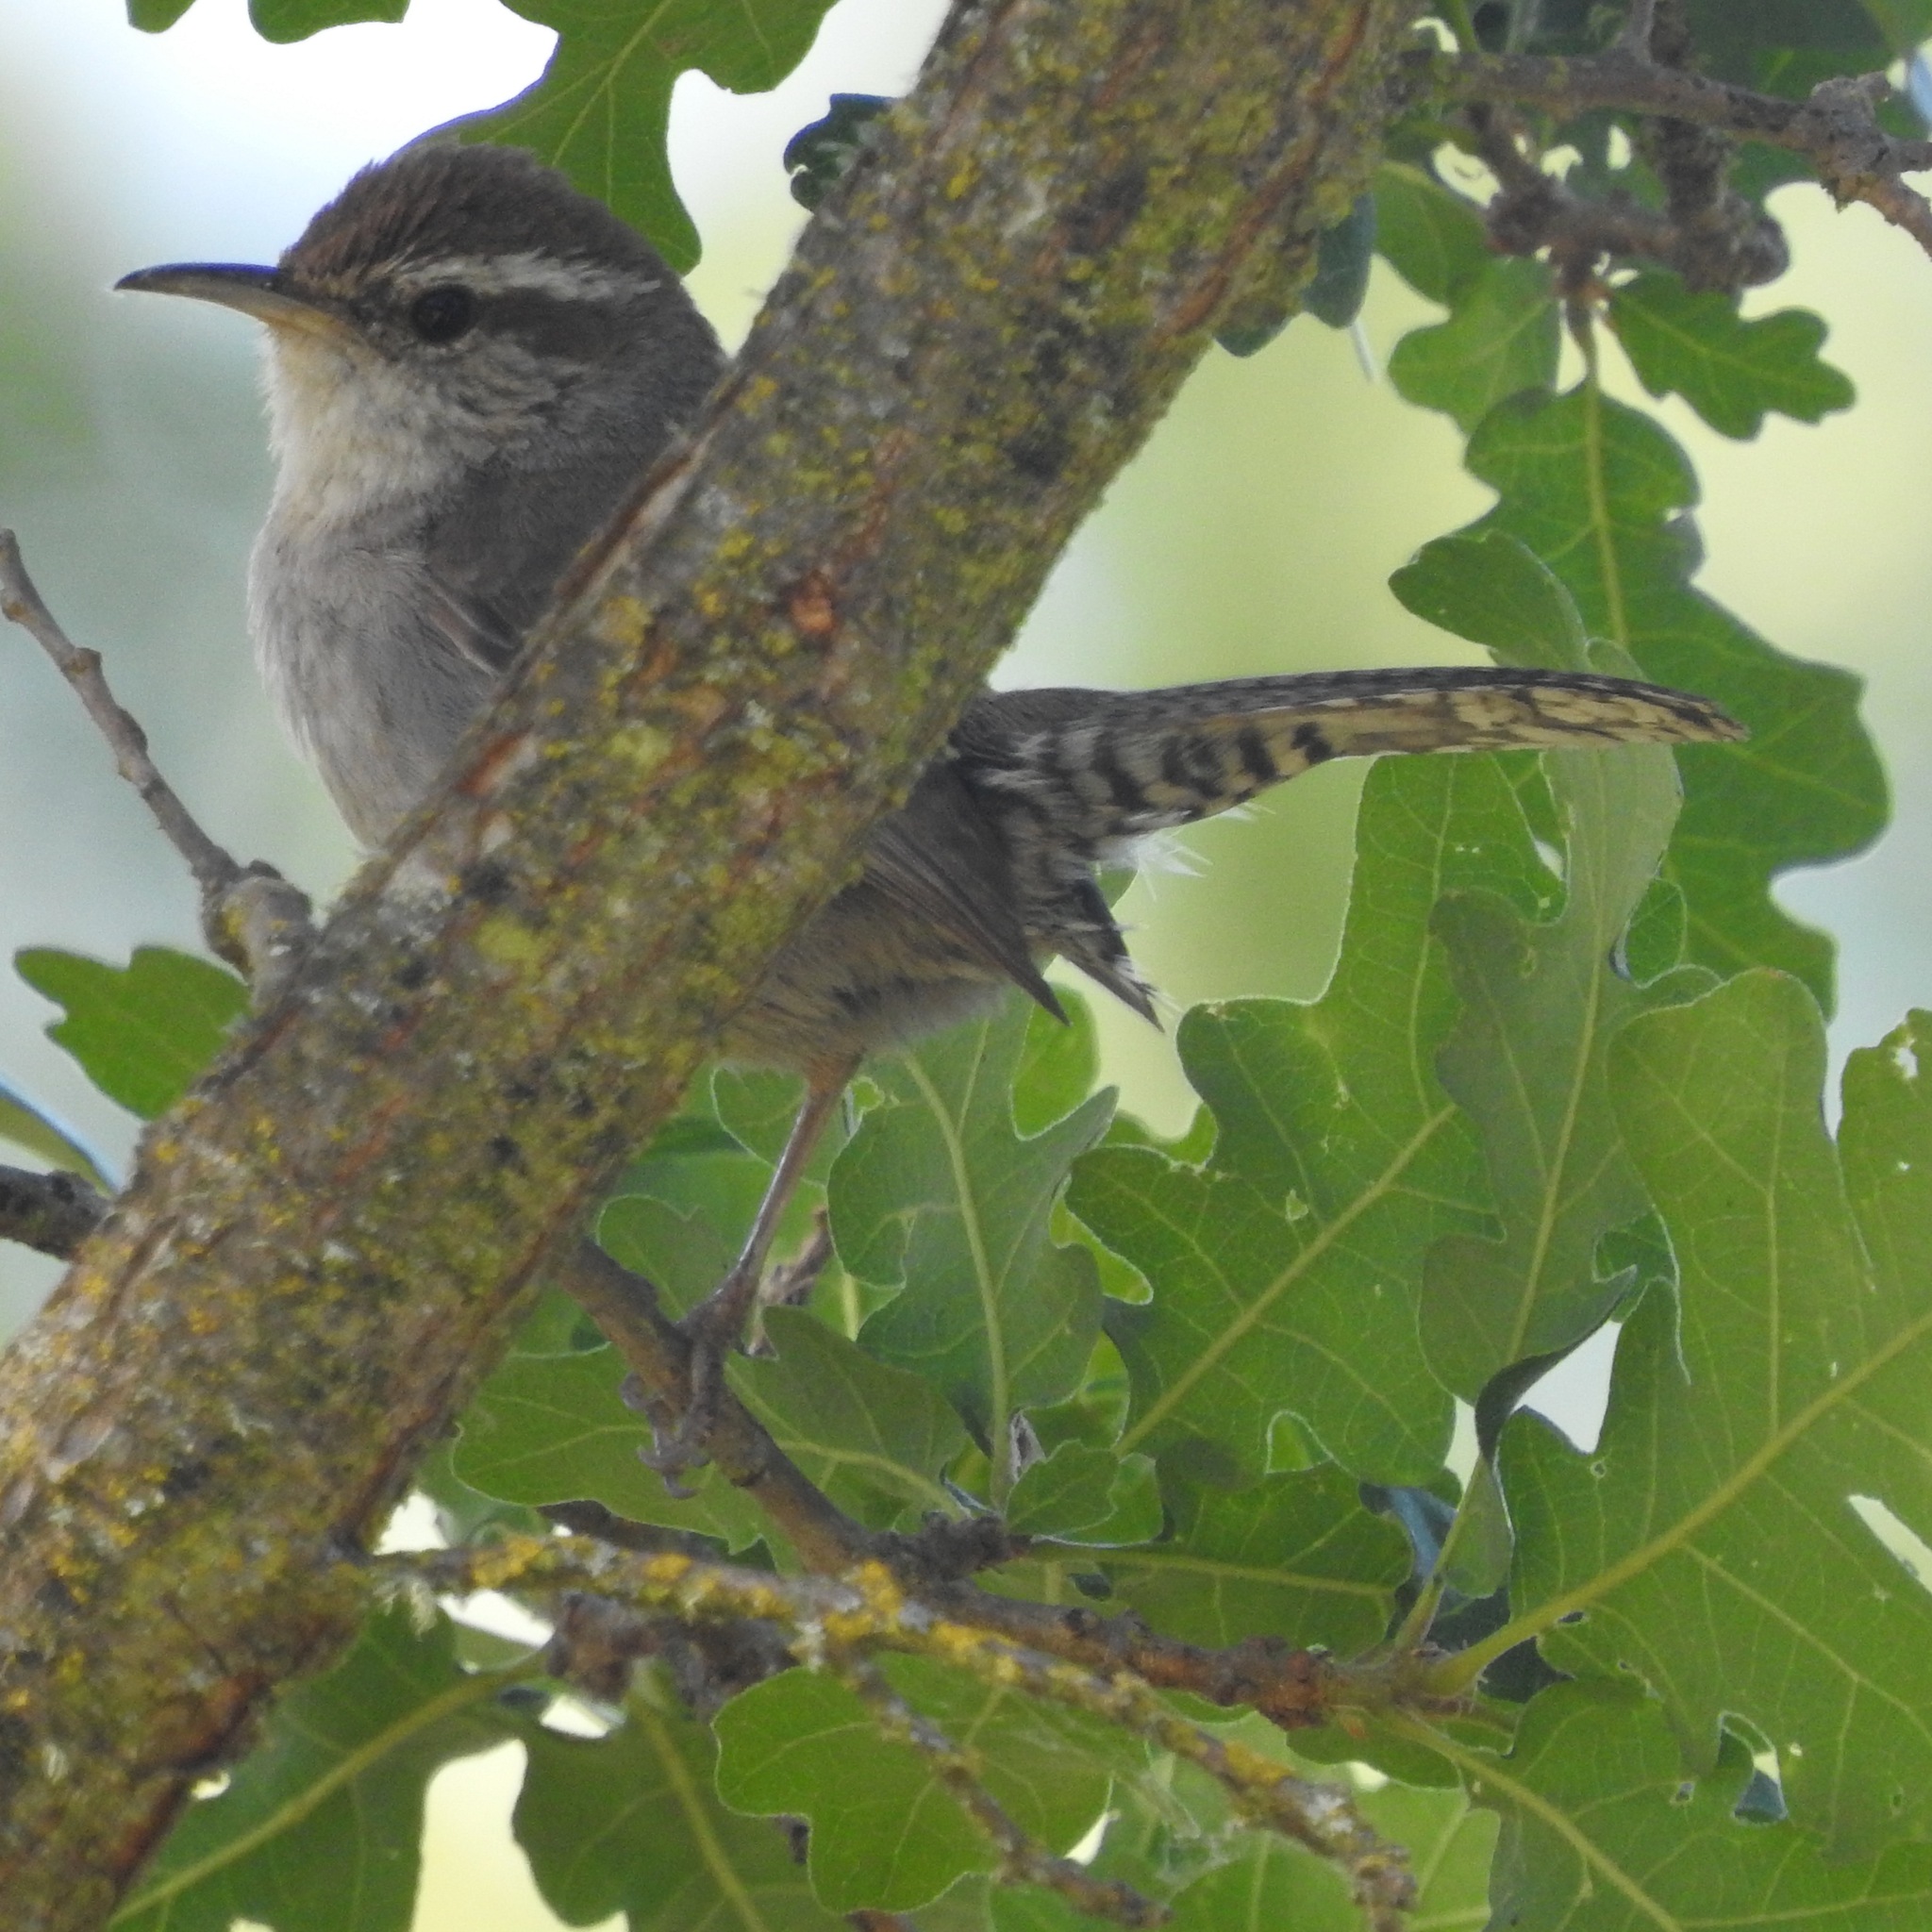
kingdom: Animalia
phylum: Chordata
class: Aves
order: Passeriformes
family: Troglodytidae
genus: Thryomanes
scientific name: Thryomanes bewickii
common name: Bewick's wren
